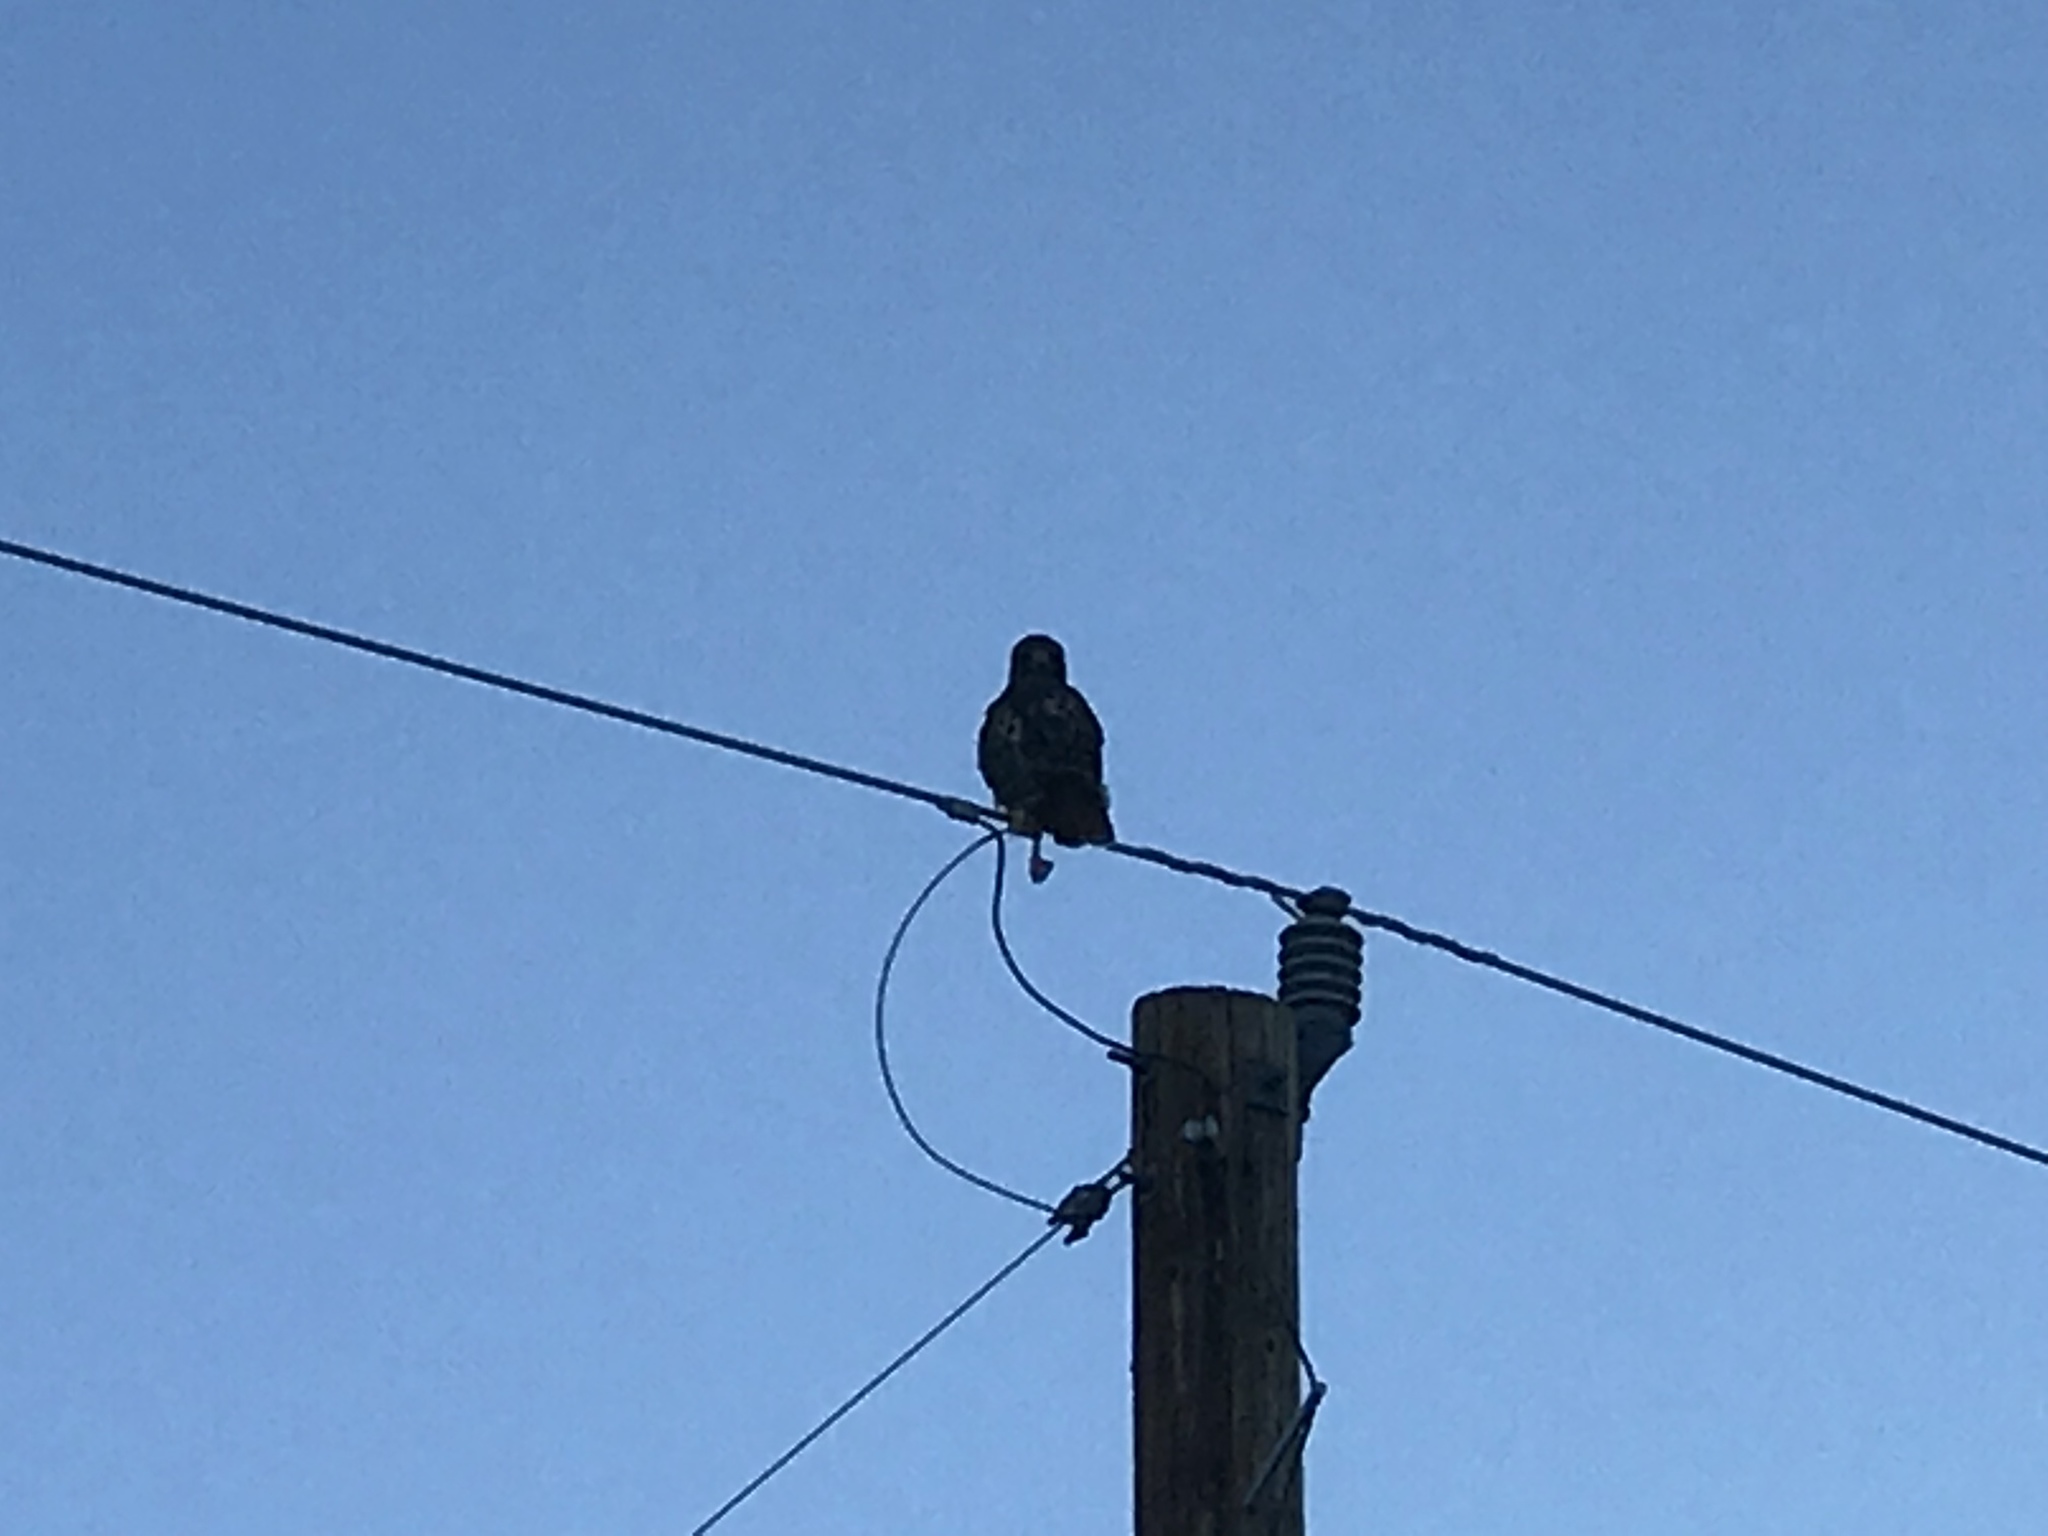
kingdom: Animalia
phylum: Chordata
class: Aves
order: Accipitriformes
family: Accipitridae
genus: Buteo
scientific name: Buteo jamaicensis
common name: Red-tailed hawk
